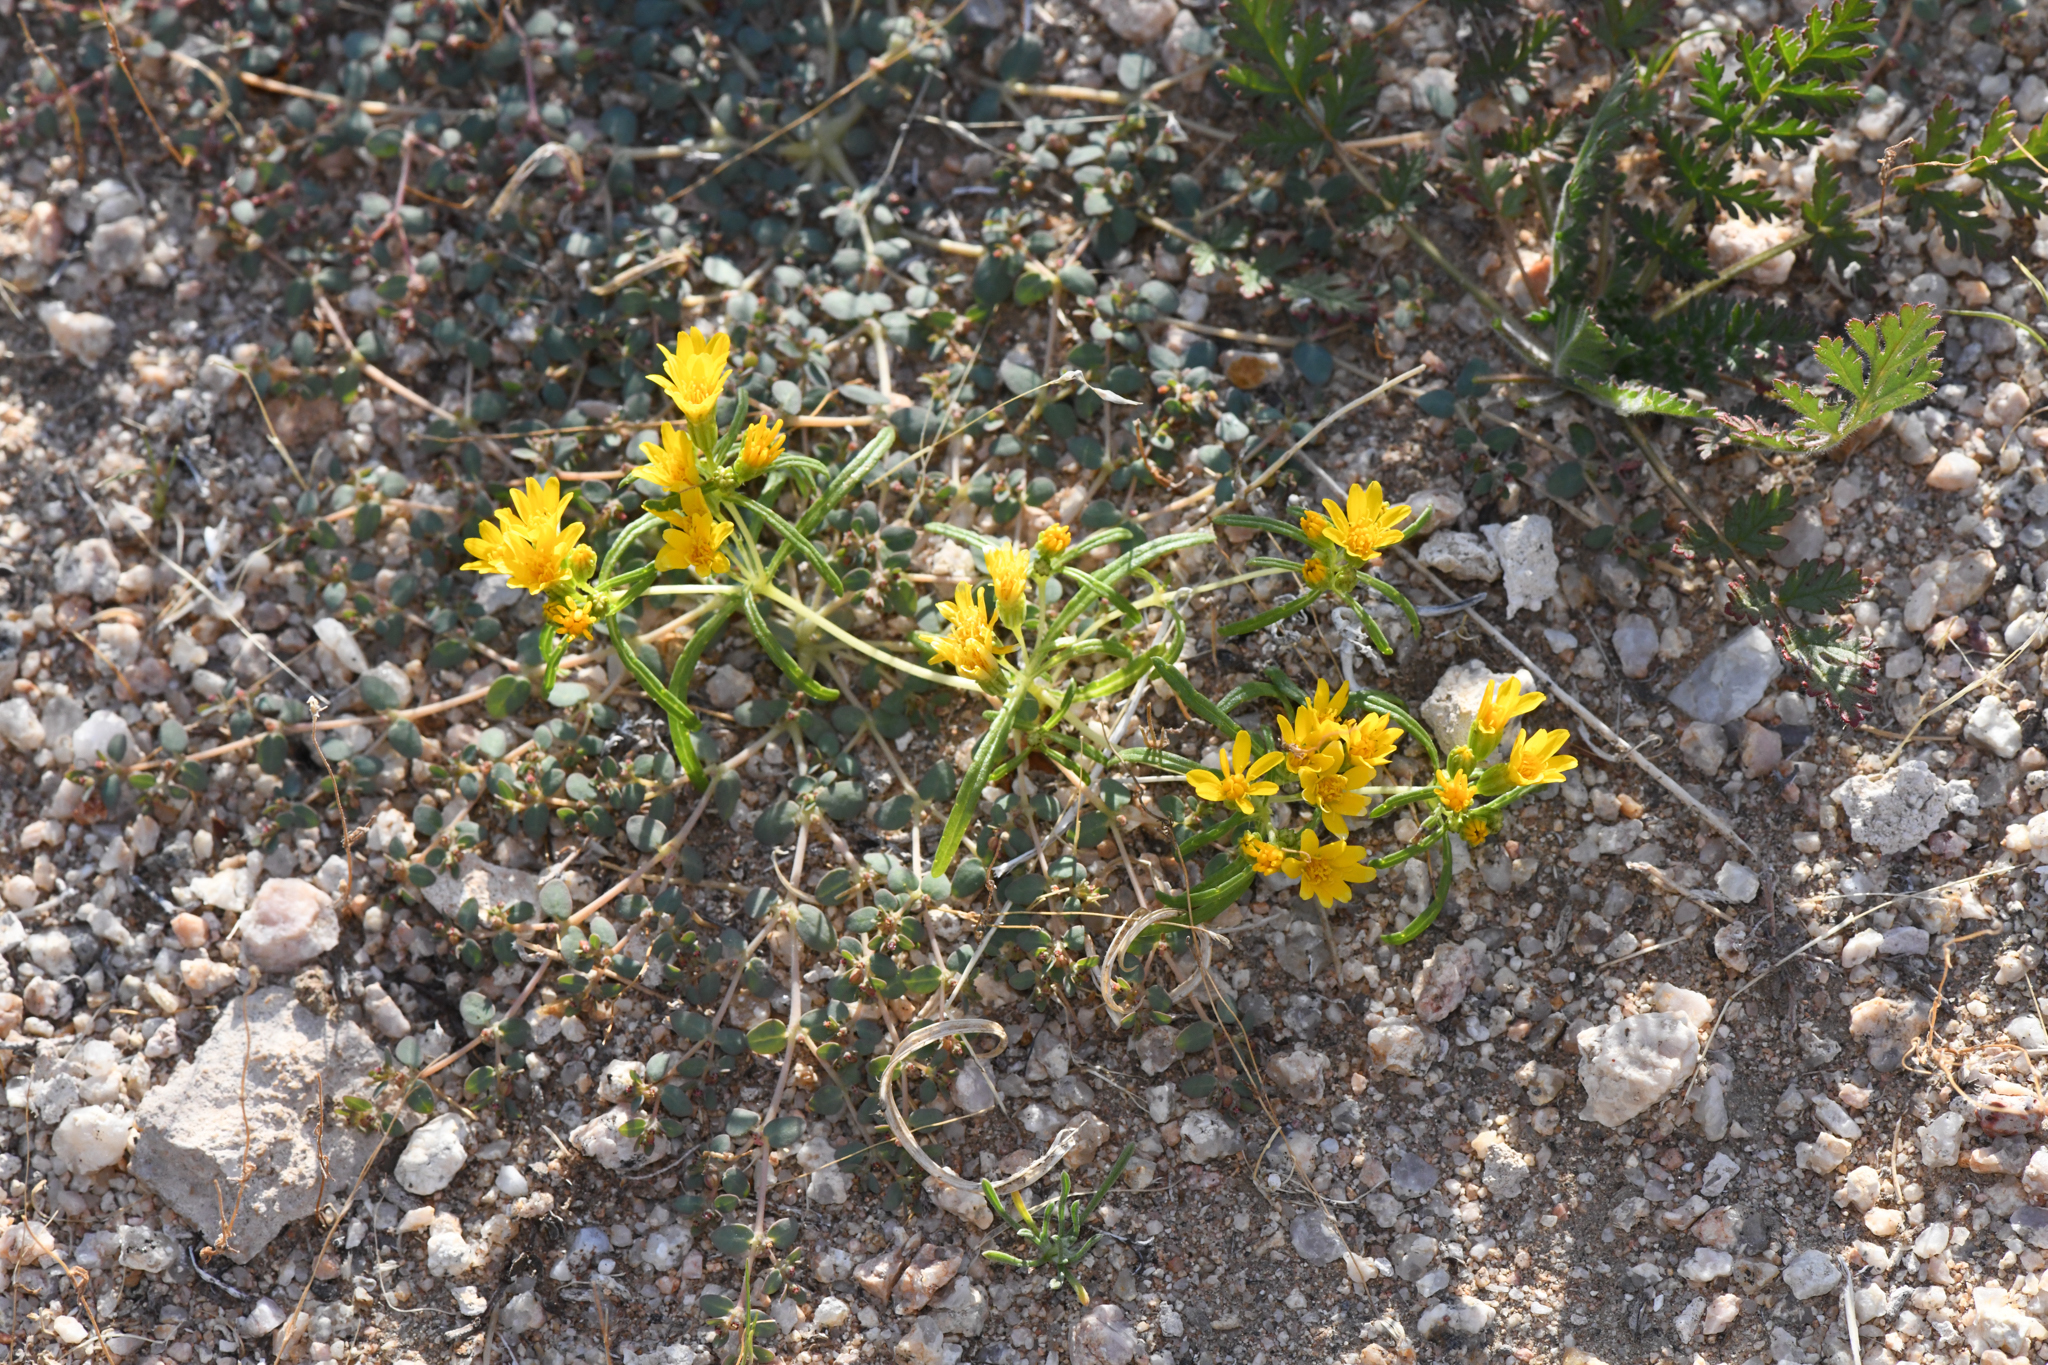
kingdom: Plantae
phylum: Tracheophyta
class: Magnoliopsida
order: Asterales
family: Asteraceae
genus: Pectis
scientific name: Pectis papposa
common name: Many-bristle chinchweed
